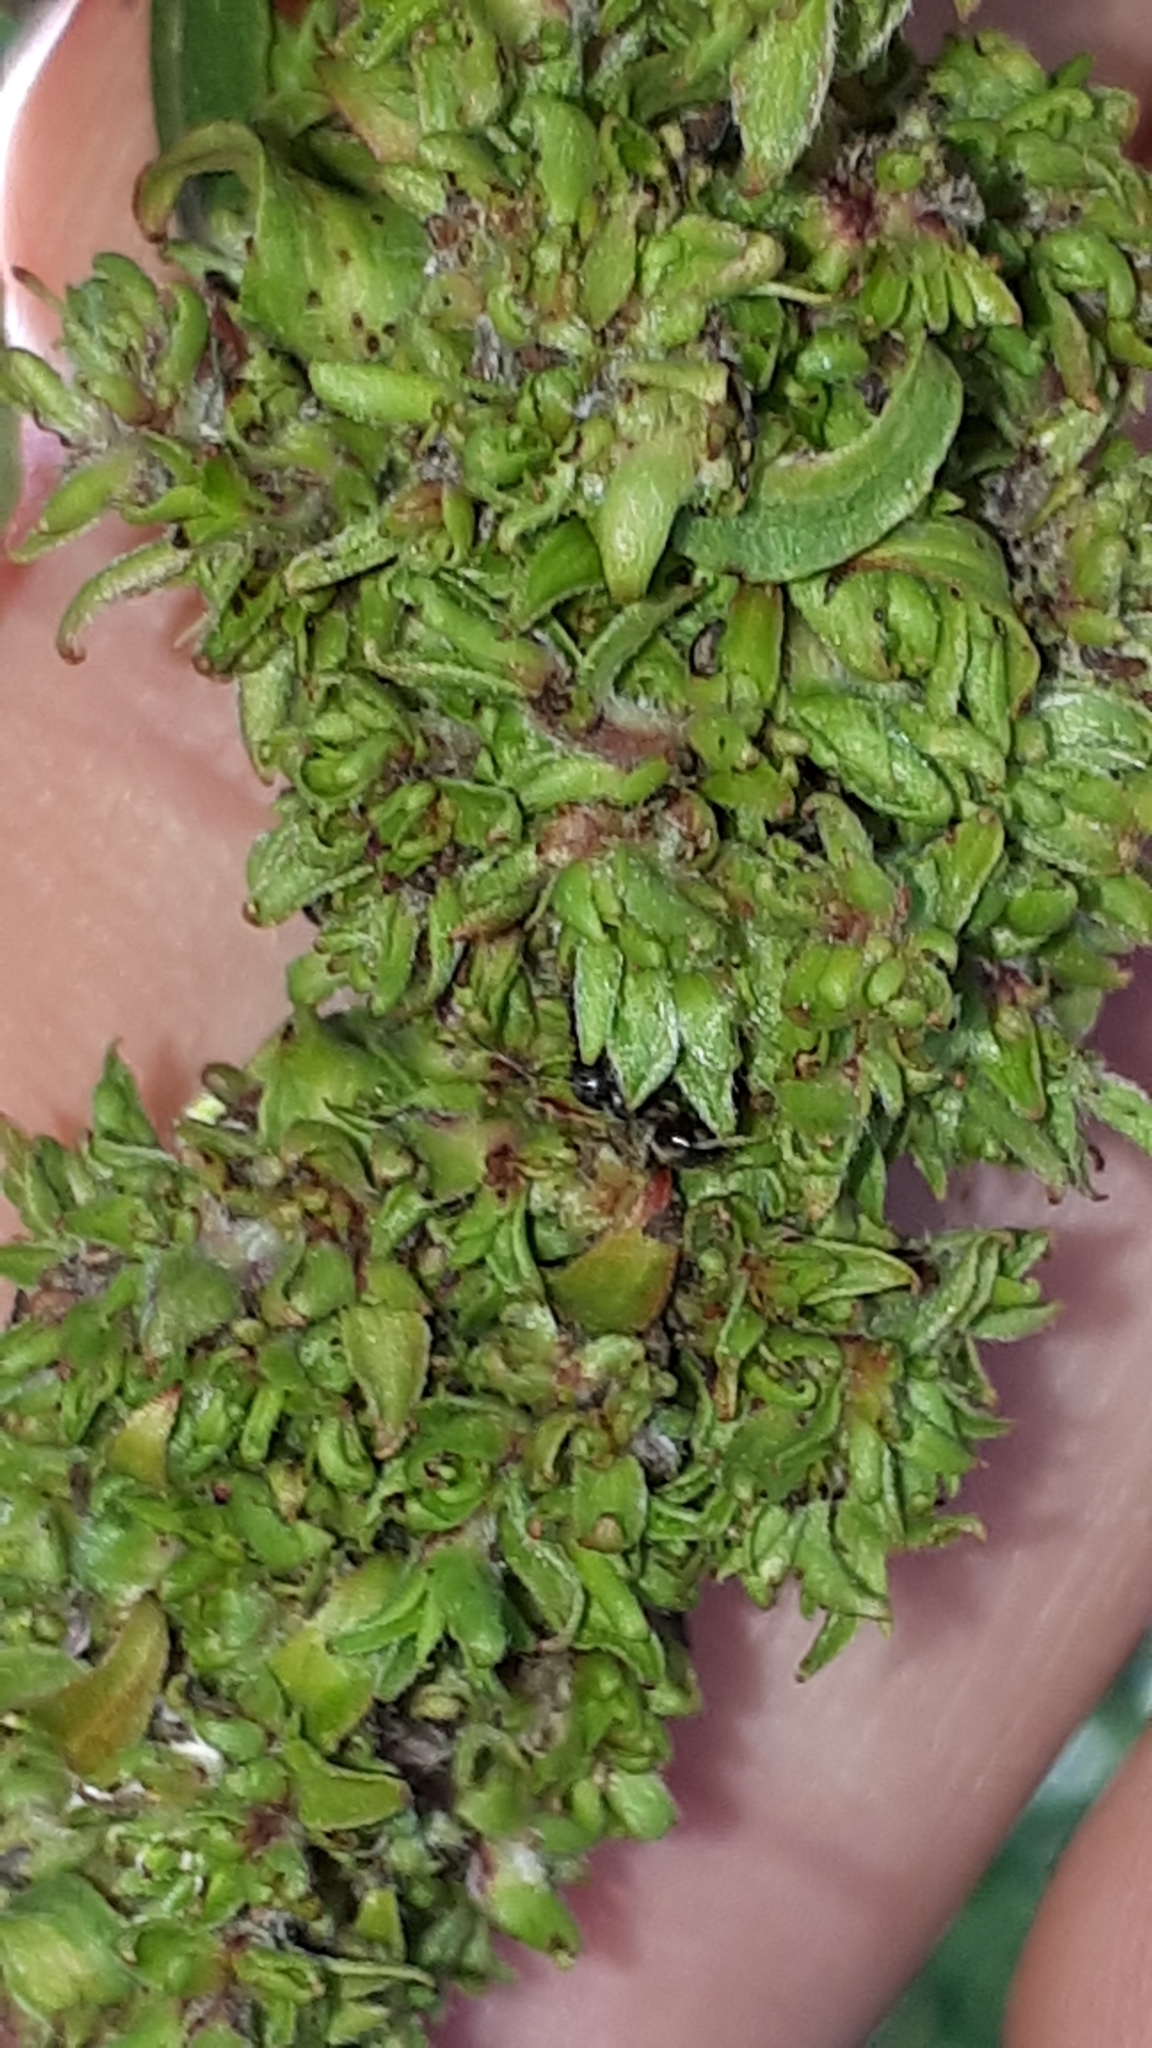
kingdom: Animalia
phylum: Arthropoda
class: Arachnida
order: Trombidiformes
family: Eriophyidae
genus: Stenacis
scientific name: Stenacis triradiatus
